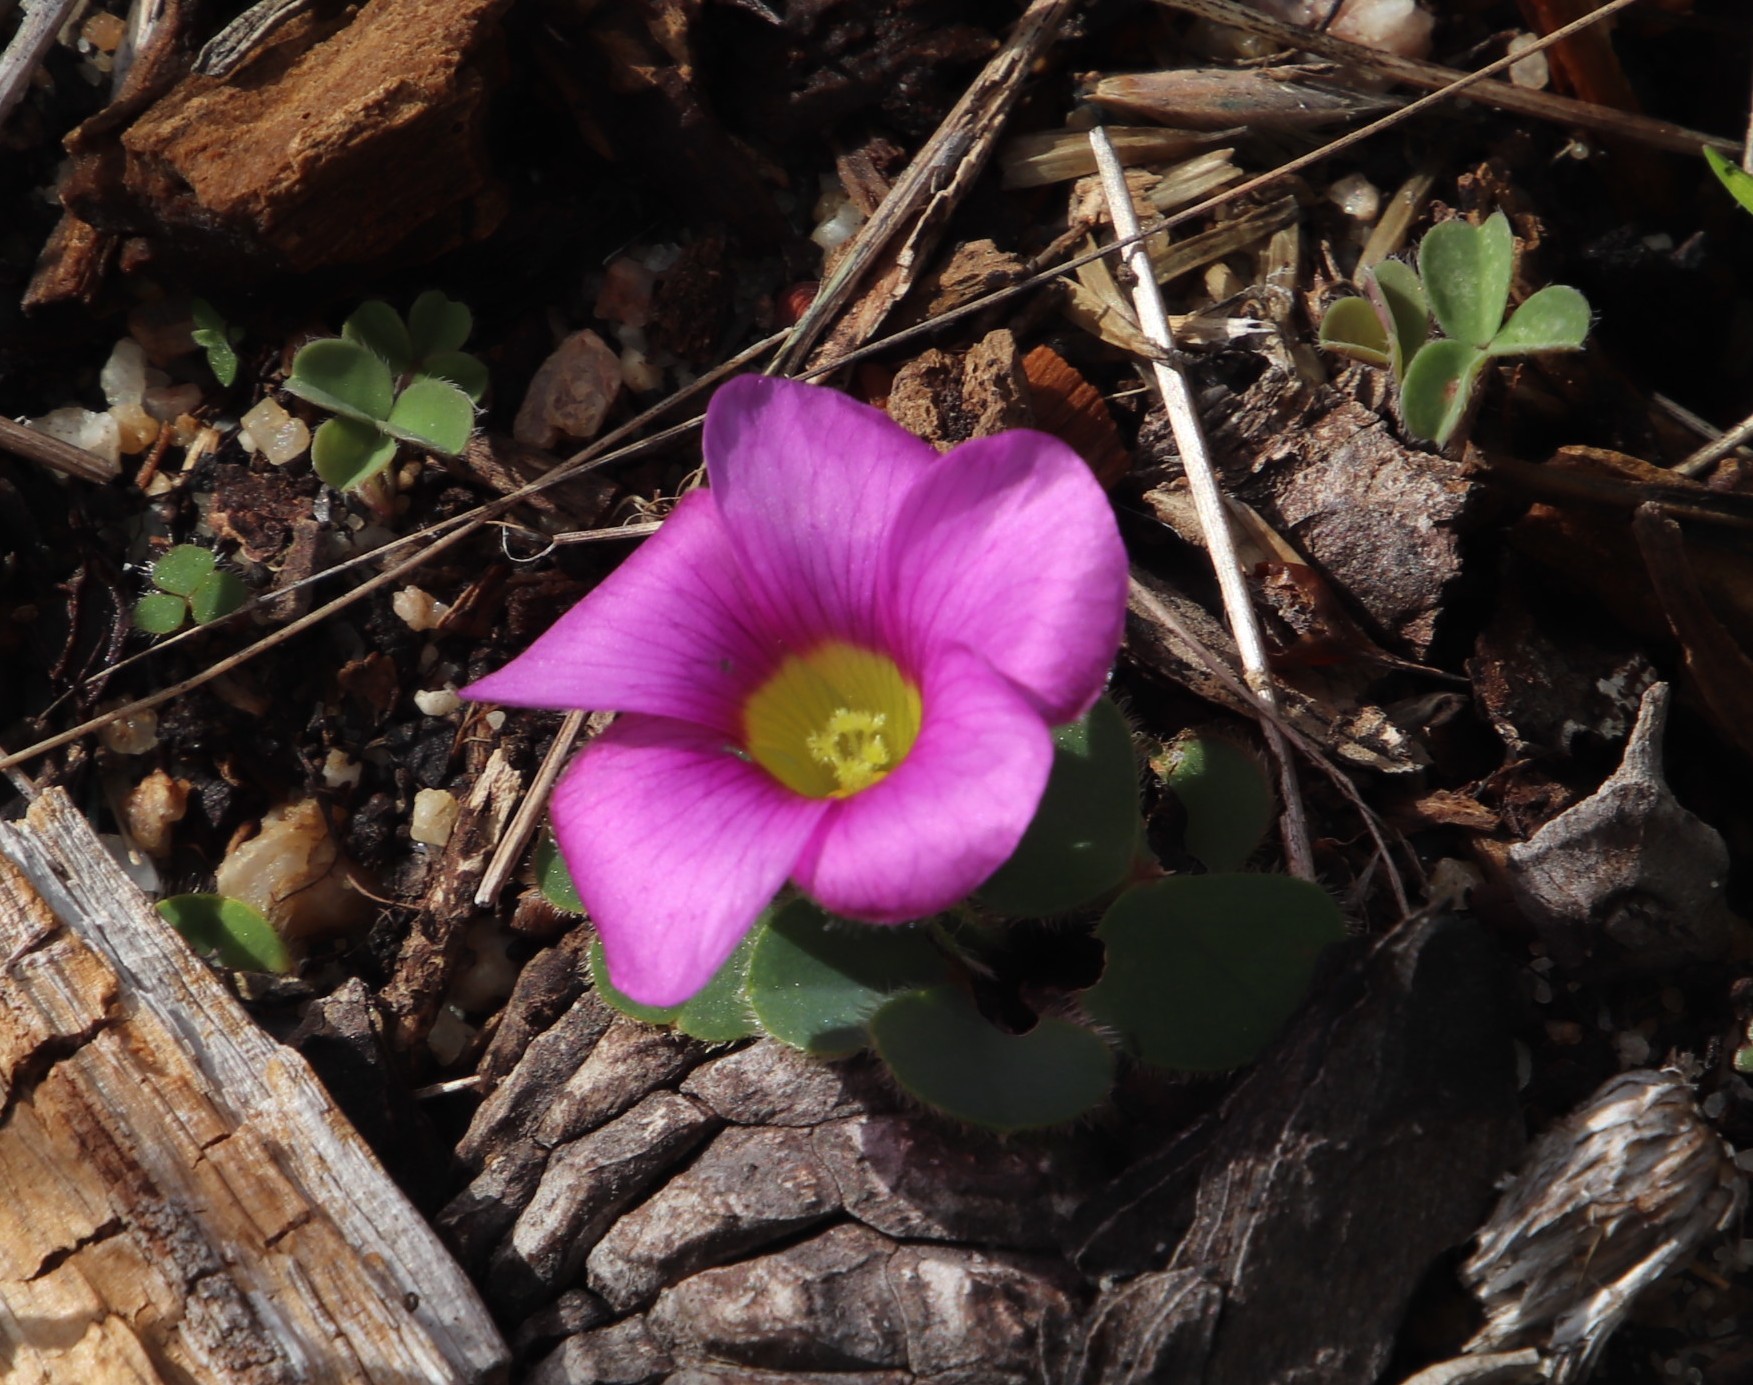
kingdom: Plantae
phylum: Tracheophyta
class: Magnoliopsida
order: Oxalidales
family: Oxalidaceae
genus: Oxalis
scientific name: Oxalis purpurea
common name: Purple woodsorrel
